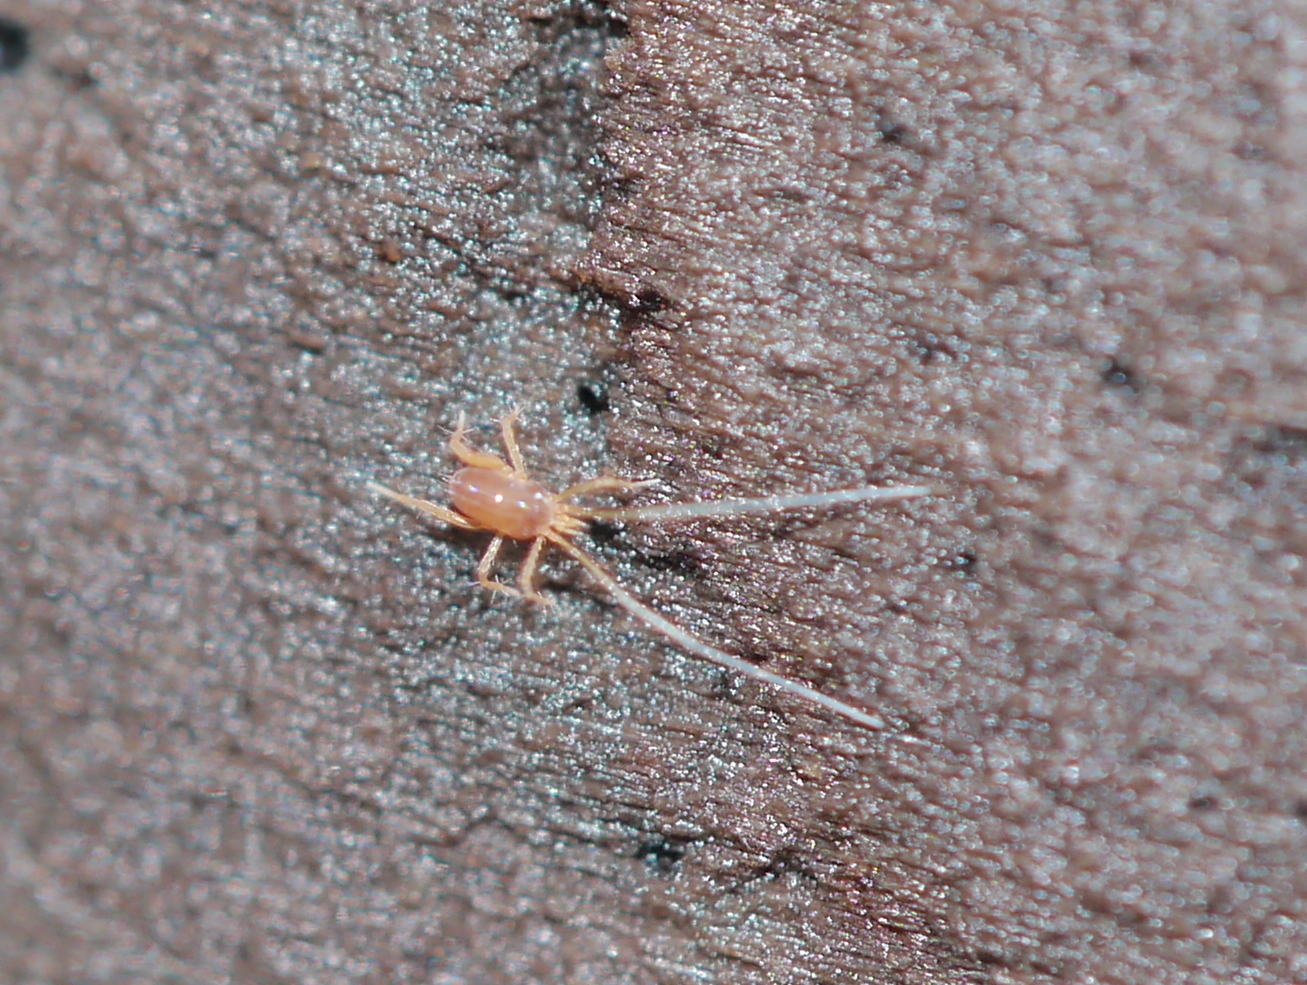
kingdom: Animalia
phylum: Arthropoda
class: Arachnida
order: Trombidiformes
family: Eupodidae
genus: Linopodes
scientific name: Linopodes
